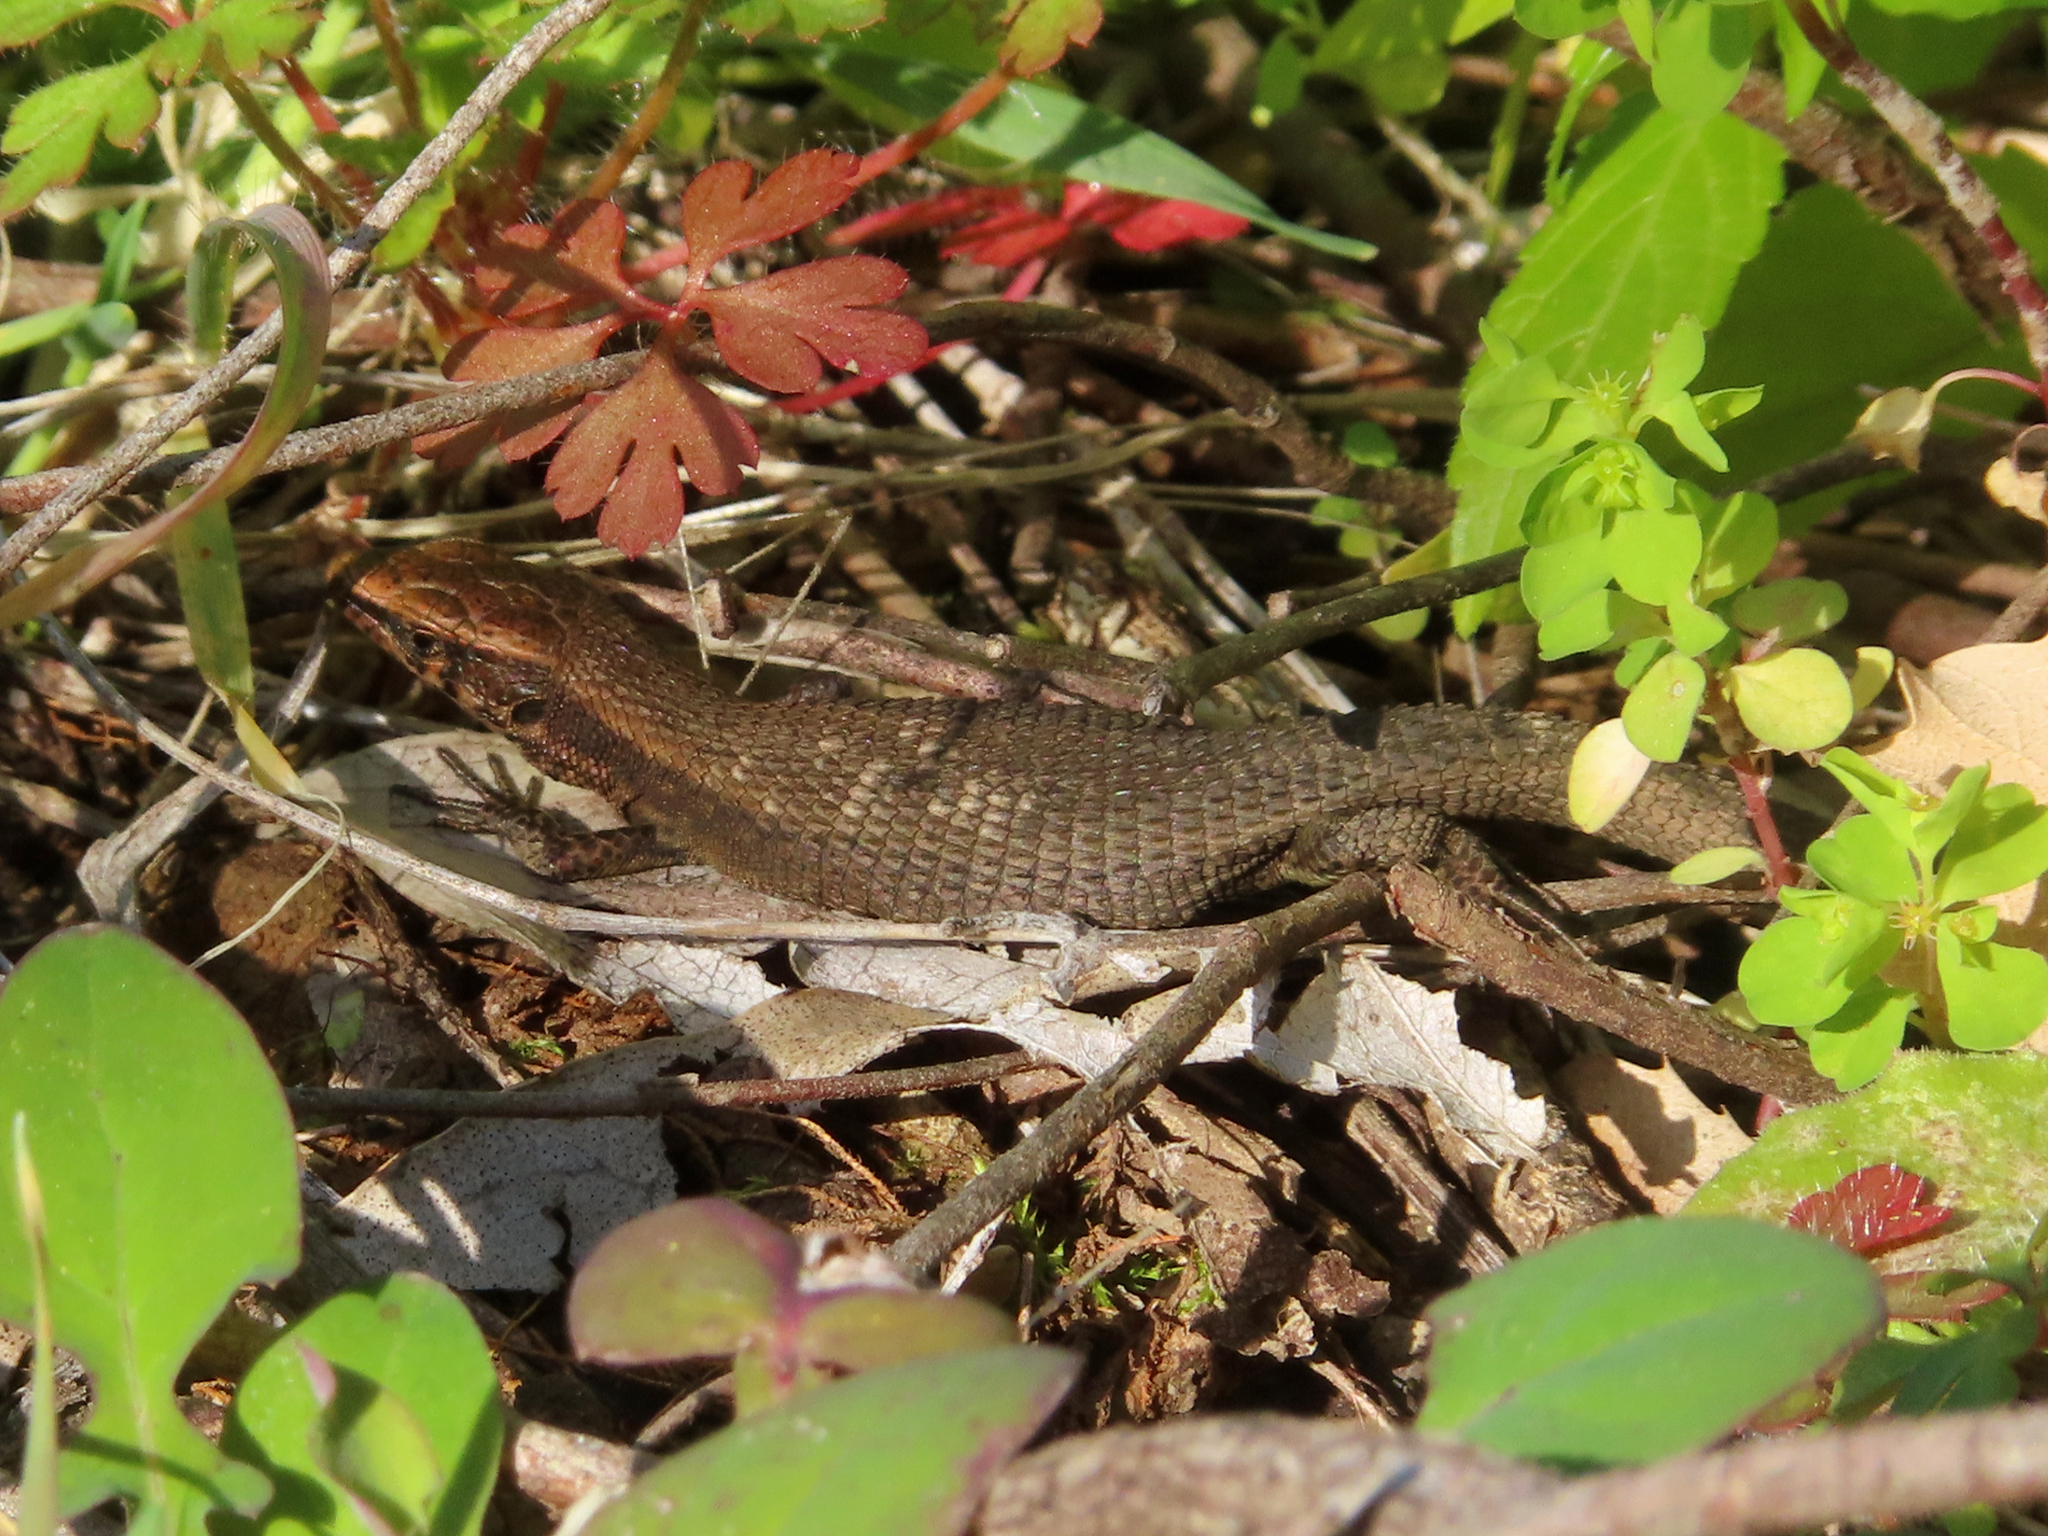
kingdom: Animalia
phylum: Chordata
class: Squamata
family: Lacertidae
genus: Algyroides
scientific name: Algyroides moreoticus
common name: Greek algyroides
